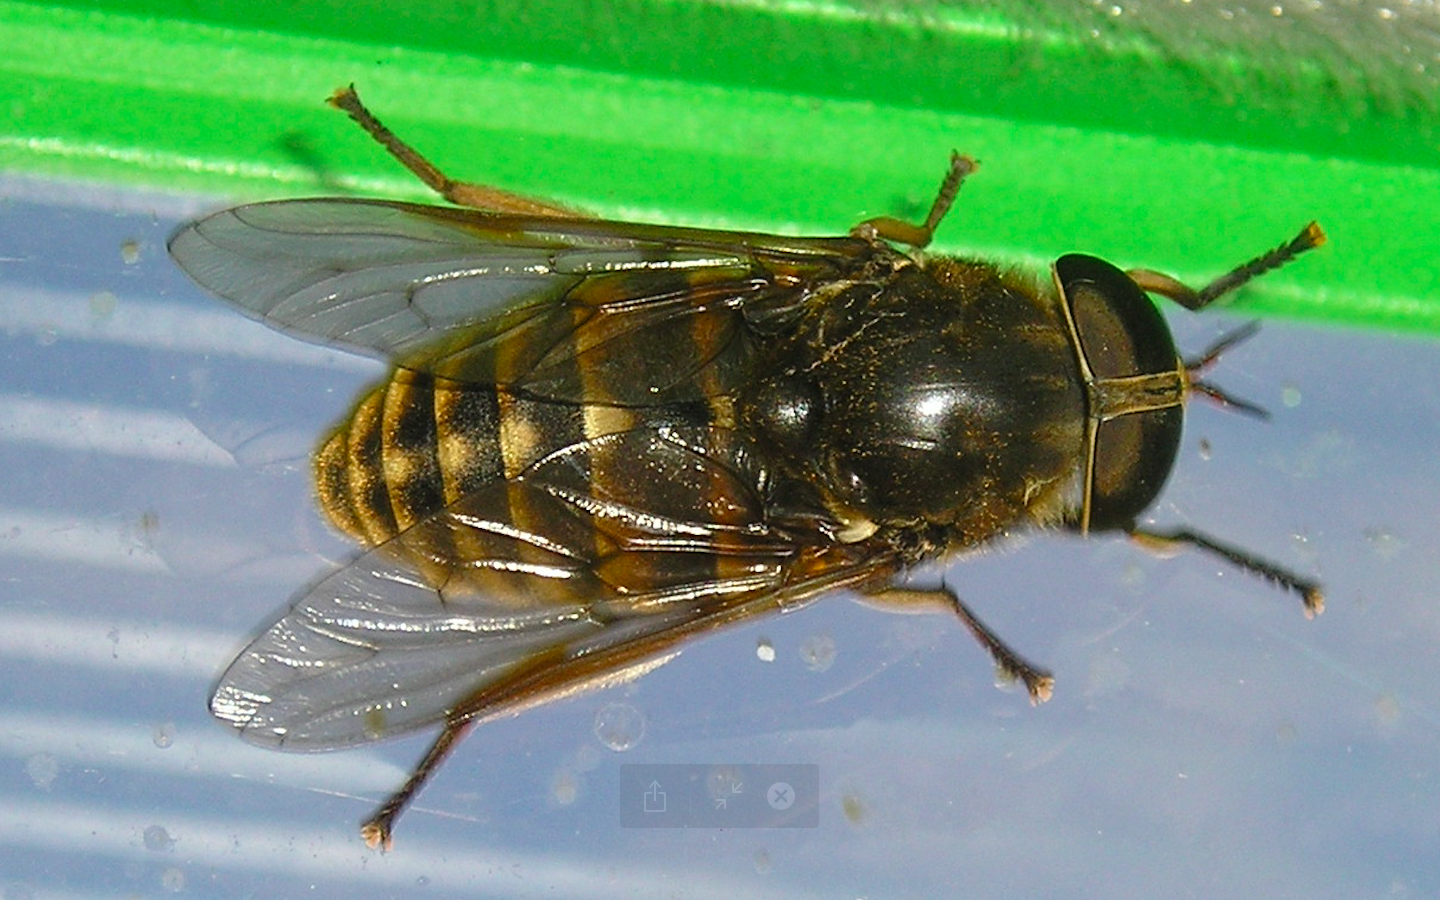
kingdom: Animalia
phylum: Arthropoda
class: Insecta
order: Diptera
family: Tabanidae
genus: Tabanus
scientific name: Tabanus sudeticus
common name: Dark giant horsefly
